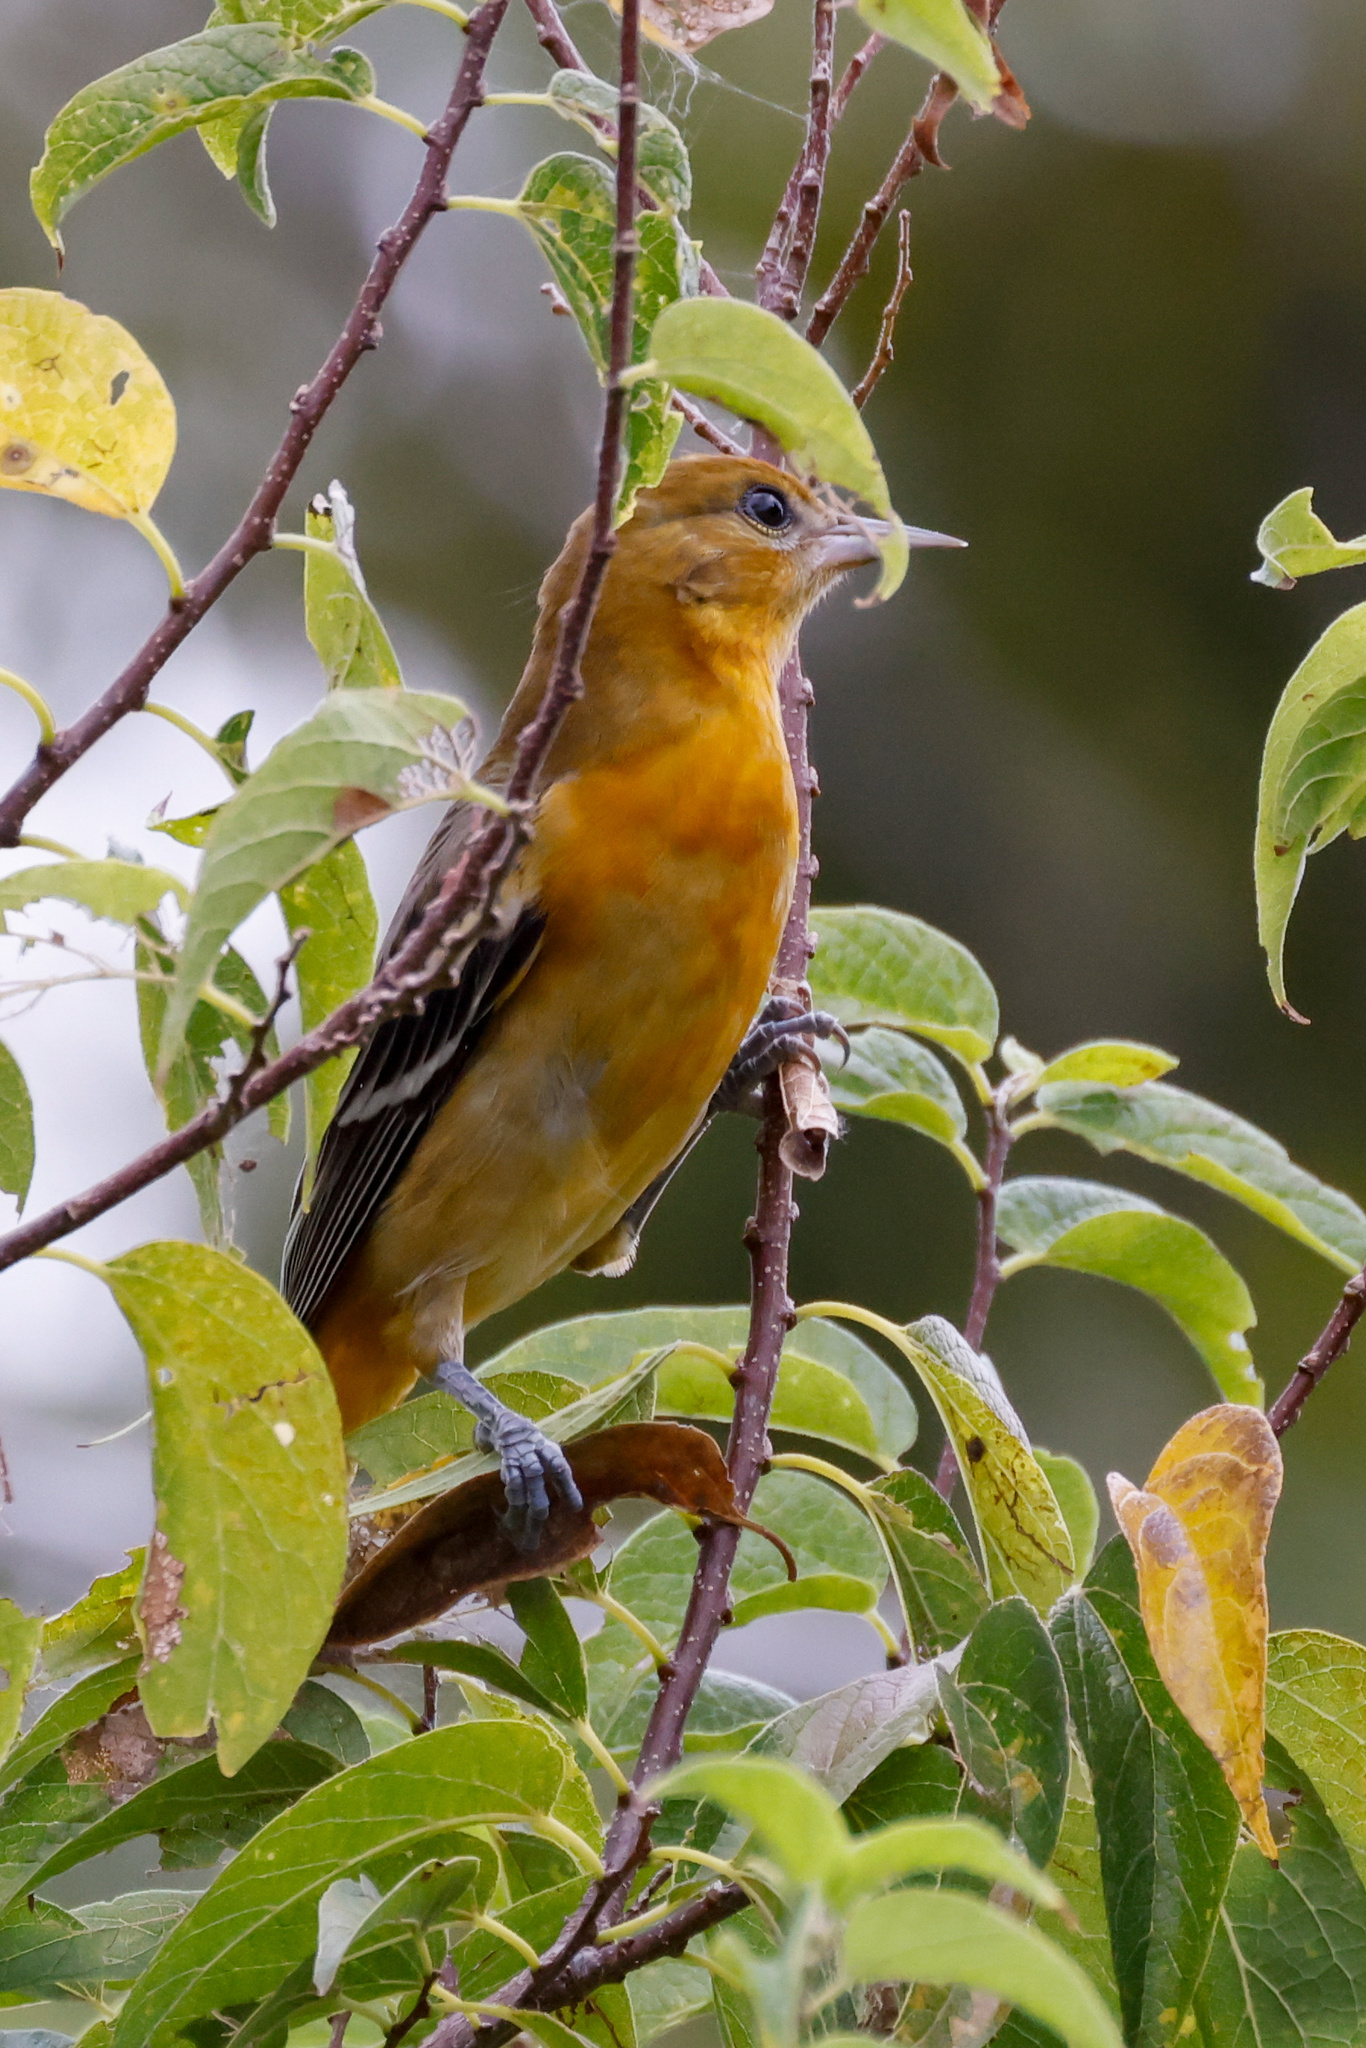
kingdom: Animalia
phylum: Chordata
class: Aves
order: Passeriformes
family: Icteridae
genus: Icterus
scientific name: Icterus galbula
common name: Baltimore oriole
